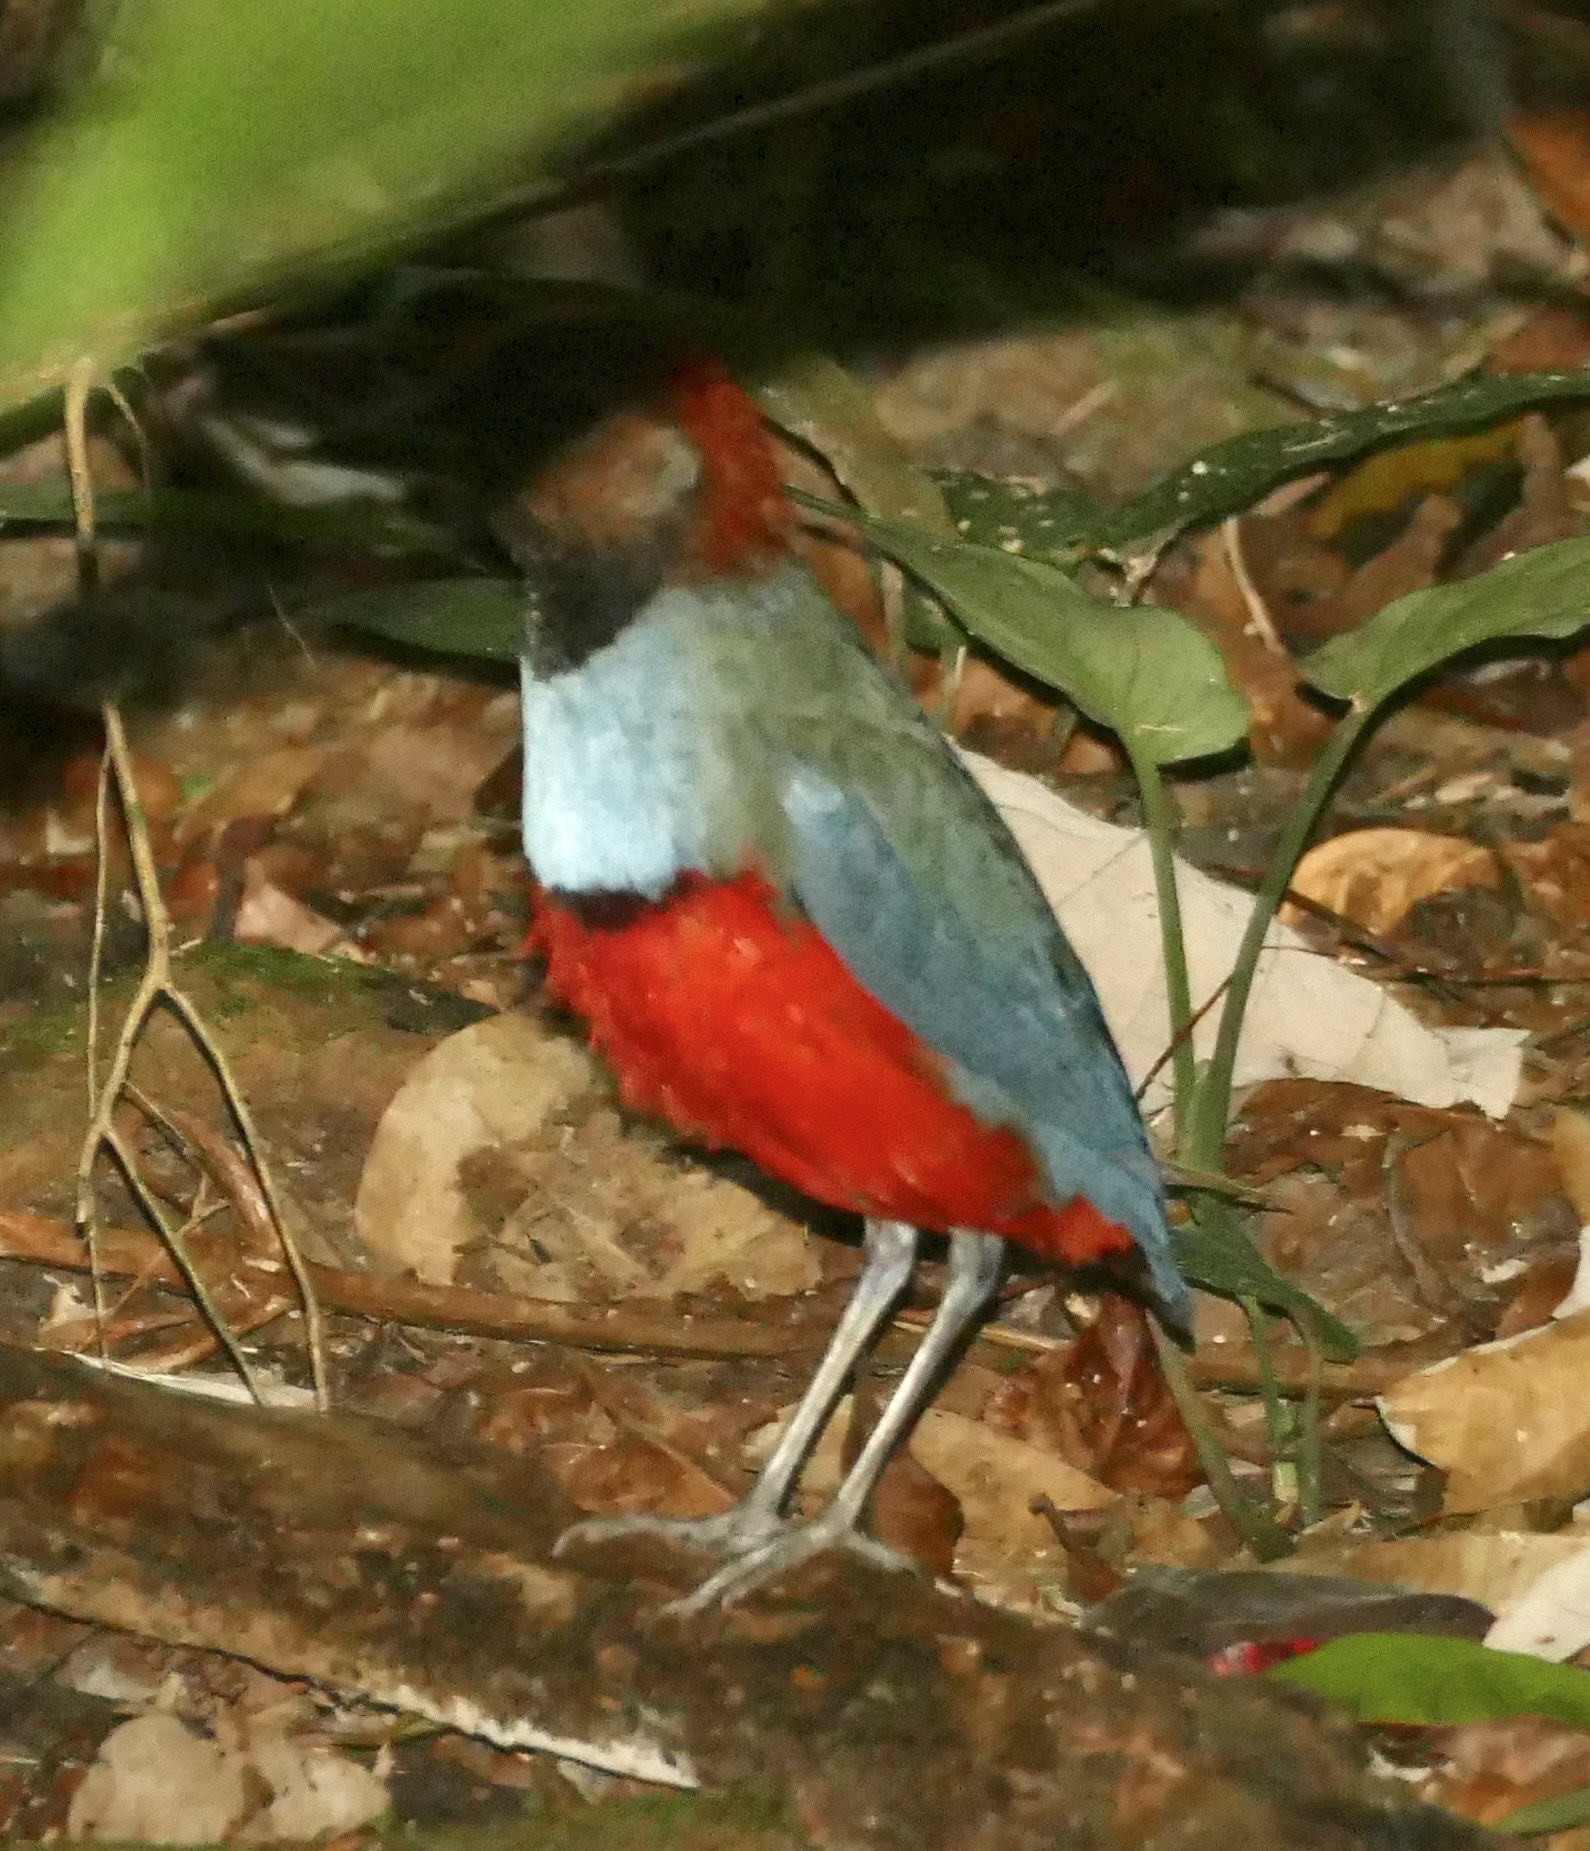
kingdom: Animalia
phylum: Chordata
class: Aves
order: Passeriformes
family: Pittidae
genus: Pitta
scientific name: Pitta erythrogaster
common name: Red-bellied pitta
